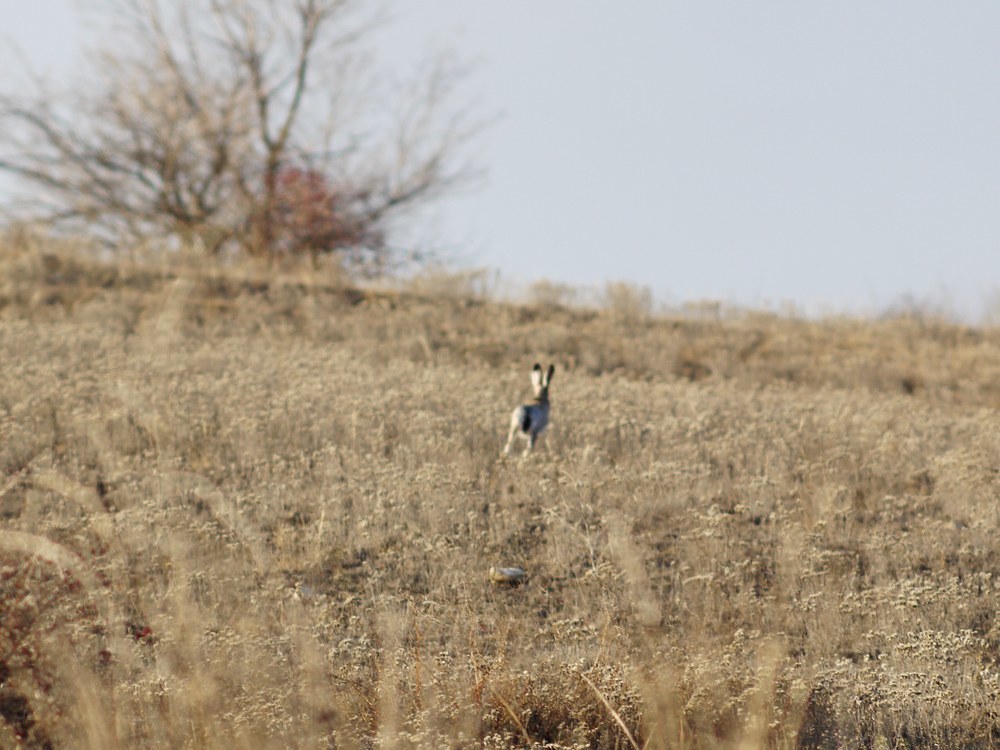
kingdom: Animalia
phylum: Chordata
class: Mammalia
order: Lagomorpha
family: Leporidae
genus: Lepus
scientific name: Lepus europaeus
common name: European hare
